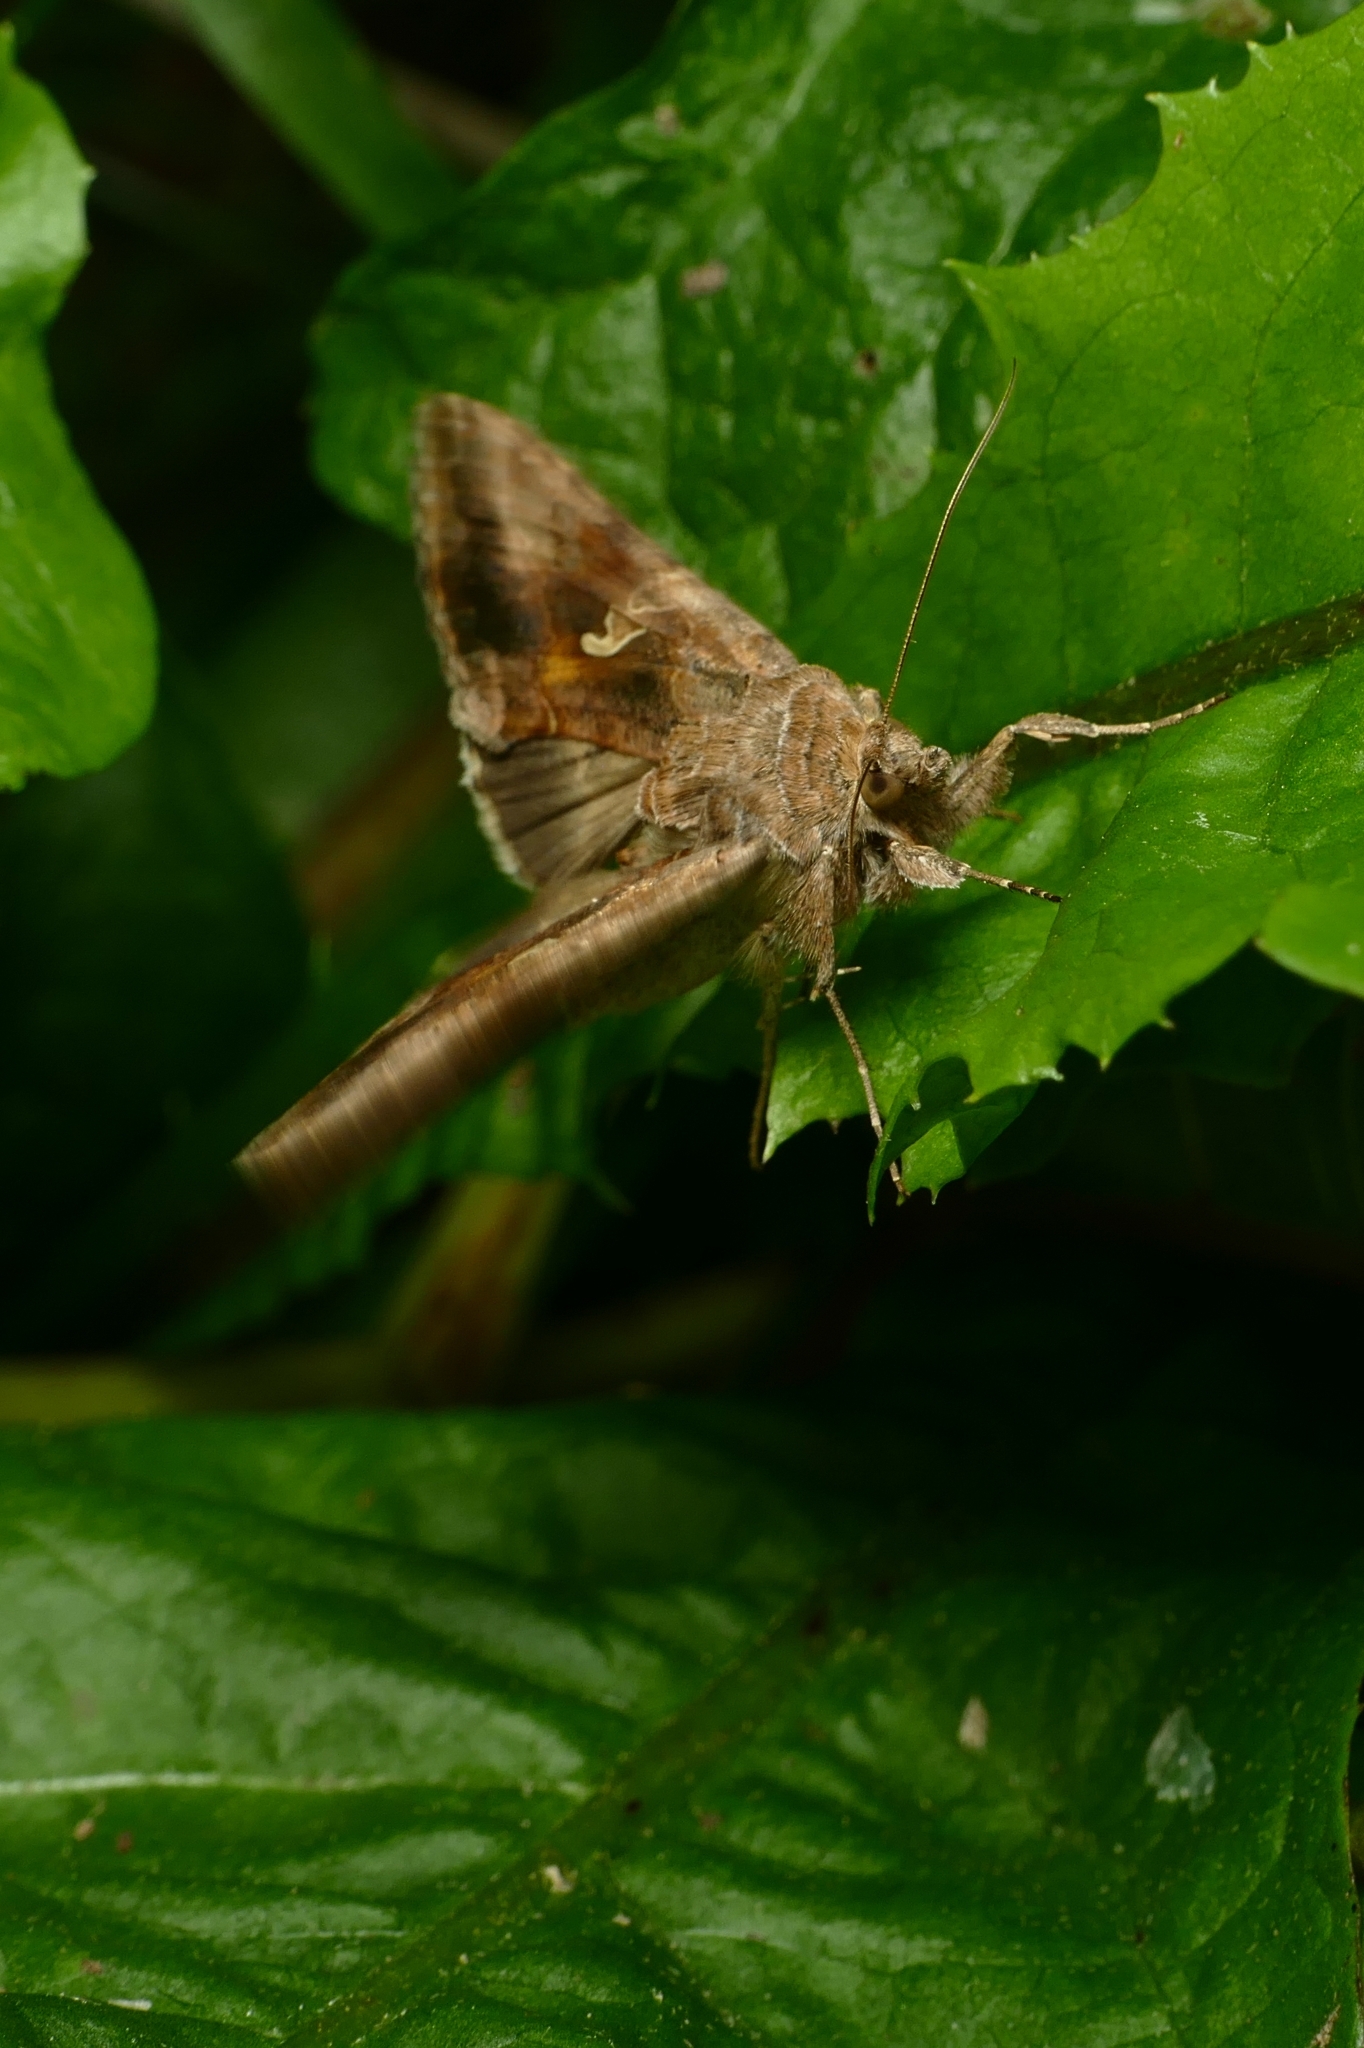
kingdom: Animalia
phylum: Arthropoda
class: Insecta
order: Lepidoptera
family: Noctuidae
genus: Autographa
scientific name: Autographa gamma
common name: Silver y
